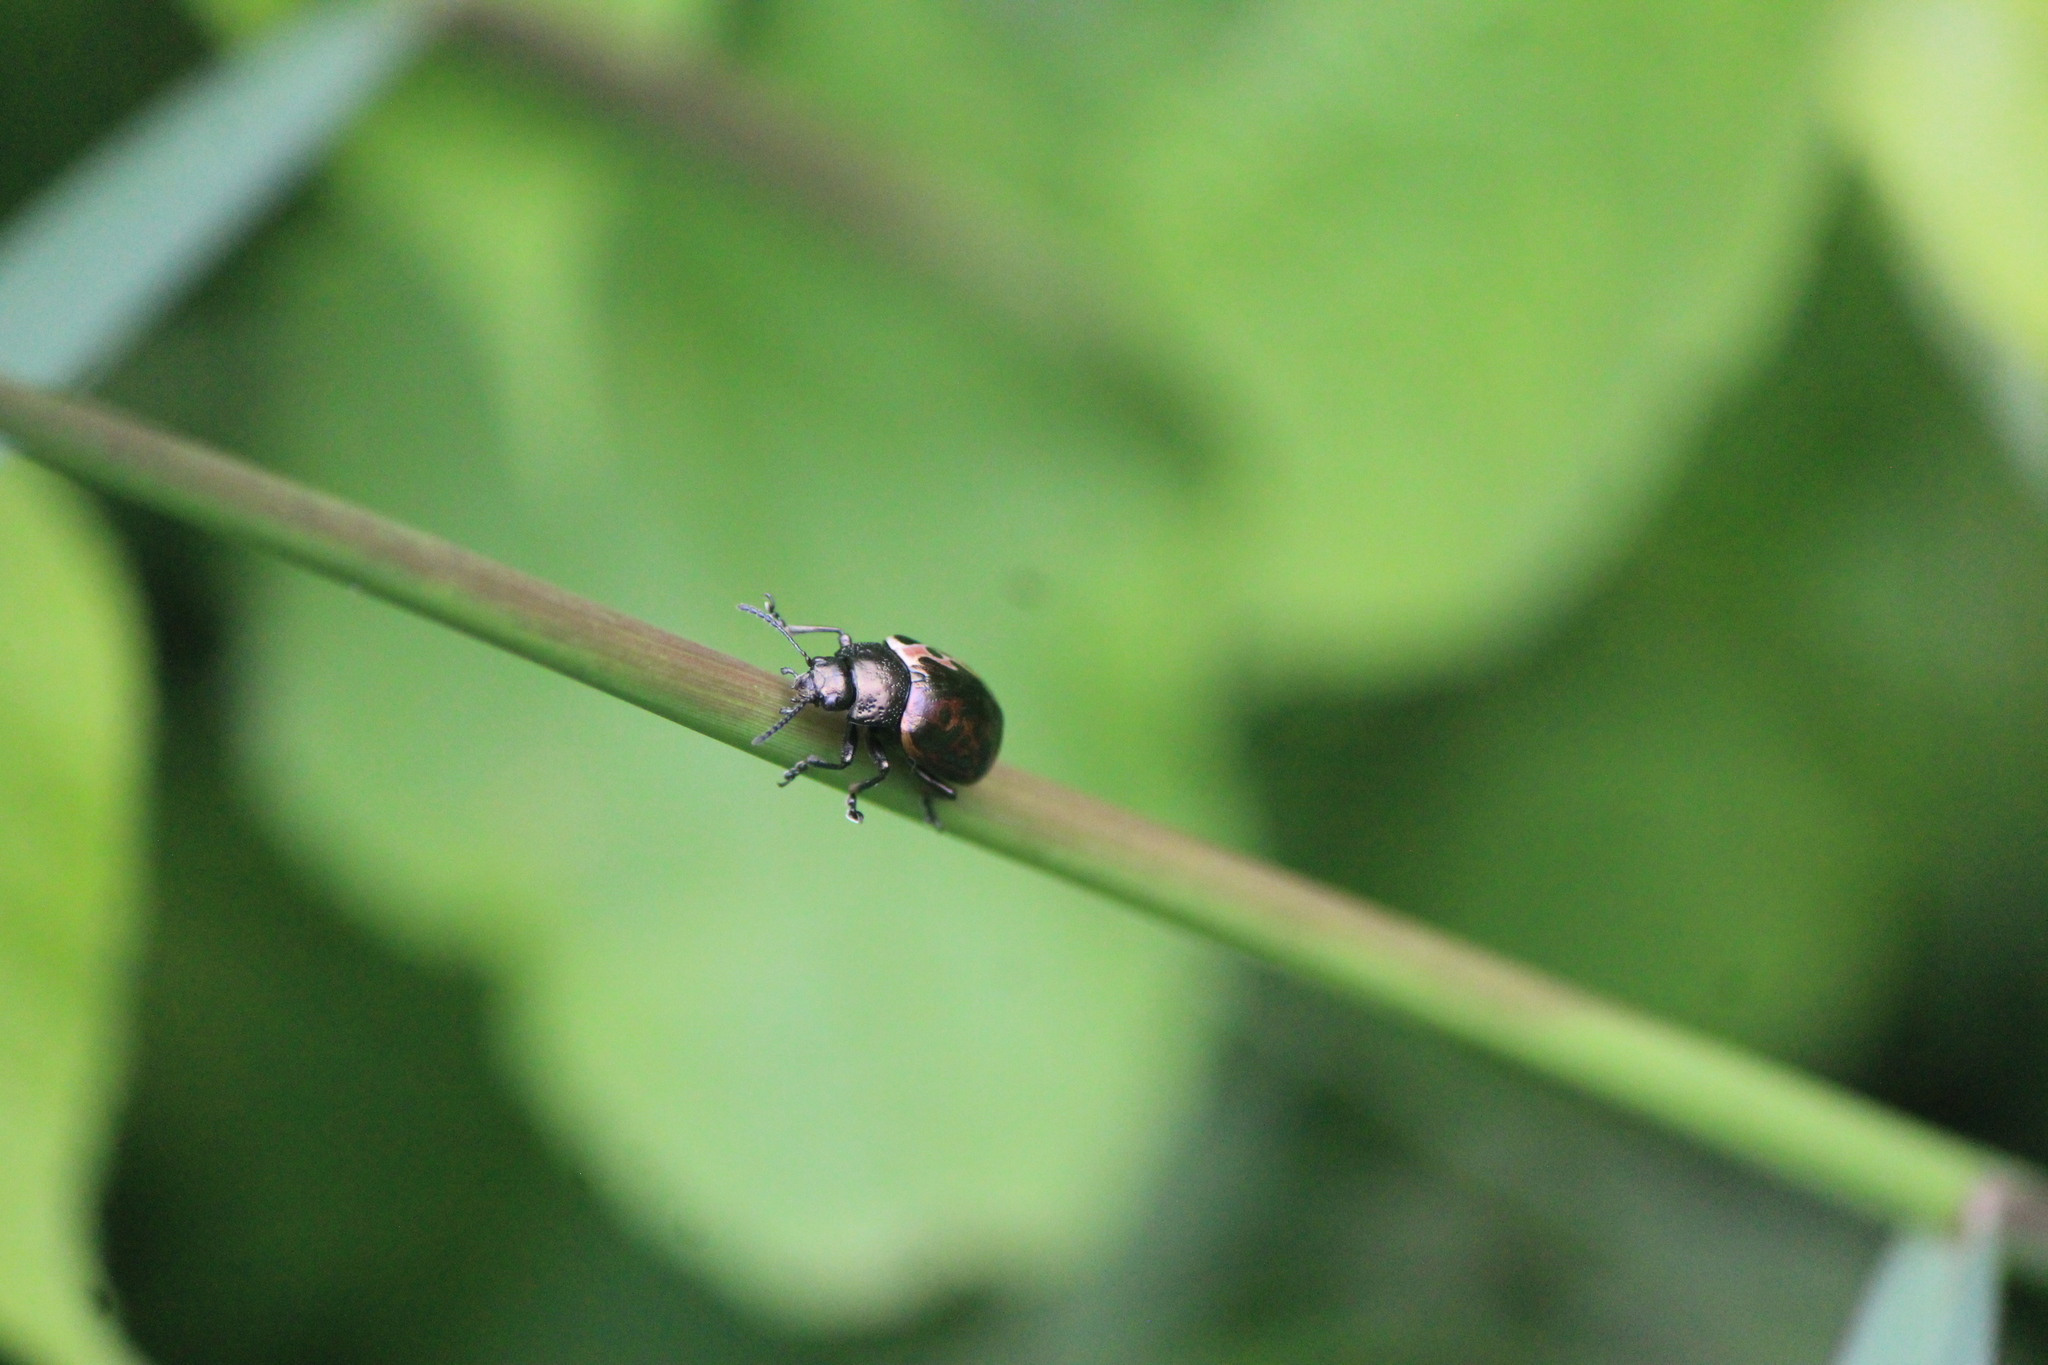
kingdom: Animalia
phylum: Arthropoda
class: Insecta
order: Coleoptera
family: Chrysomelidae
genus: Calligrapha
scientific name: Calligrapha diversa
